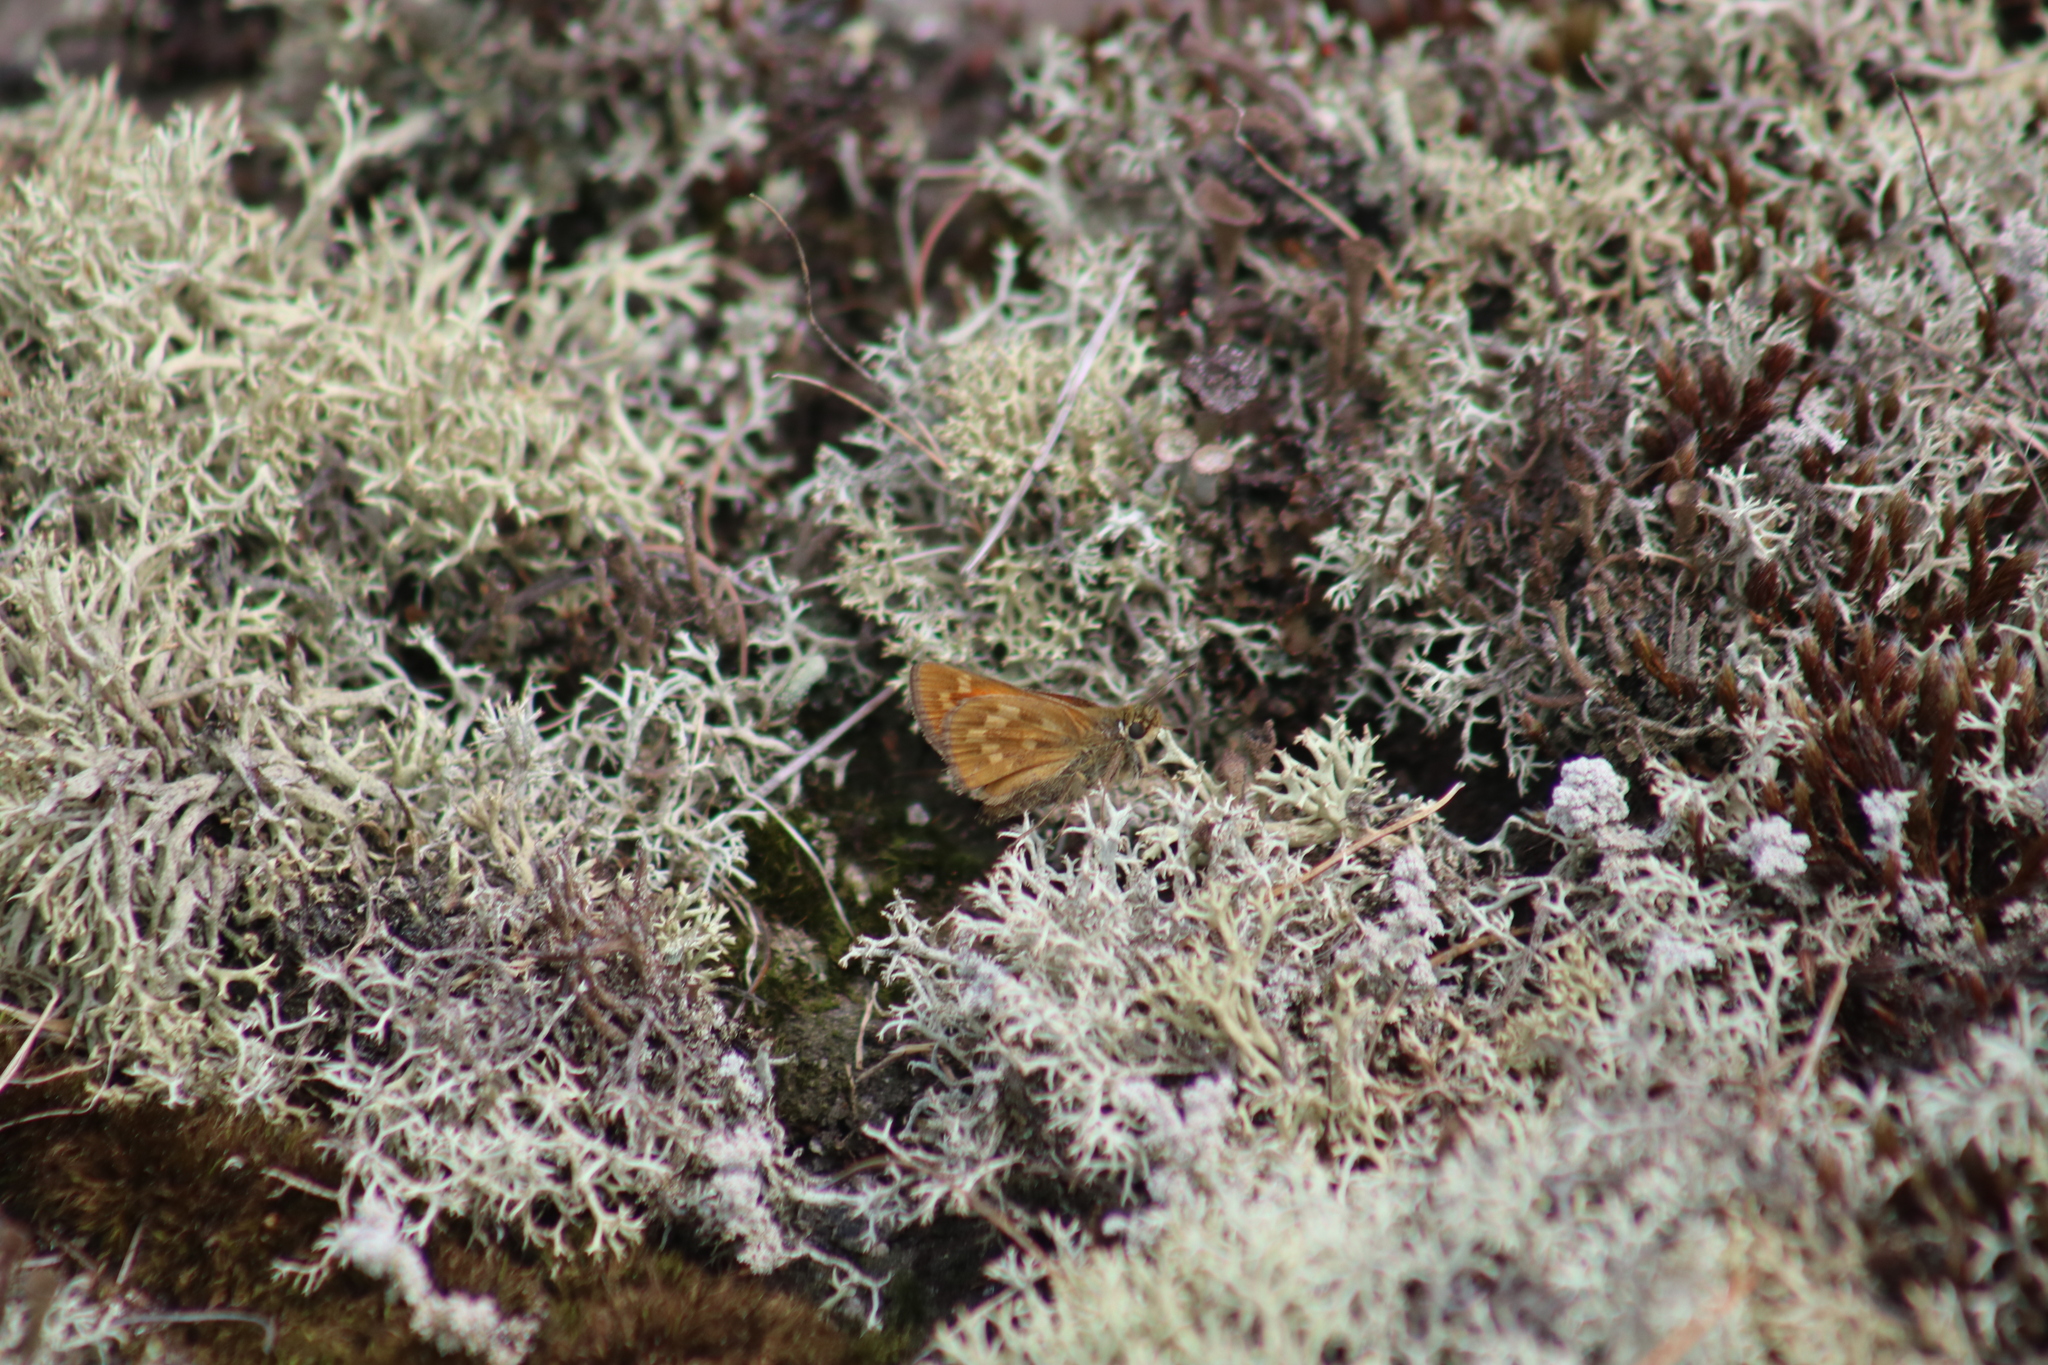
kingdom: Animalia
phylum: Arthropoda
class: Insecta
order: Lepidoptera
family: Hesperiidae
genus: Hesperia
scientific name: Hesperia sassacus
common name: Indian skipper
